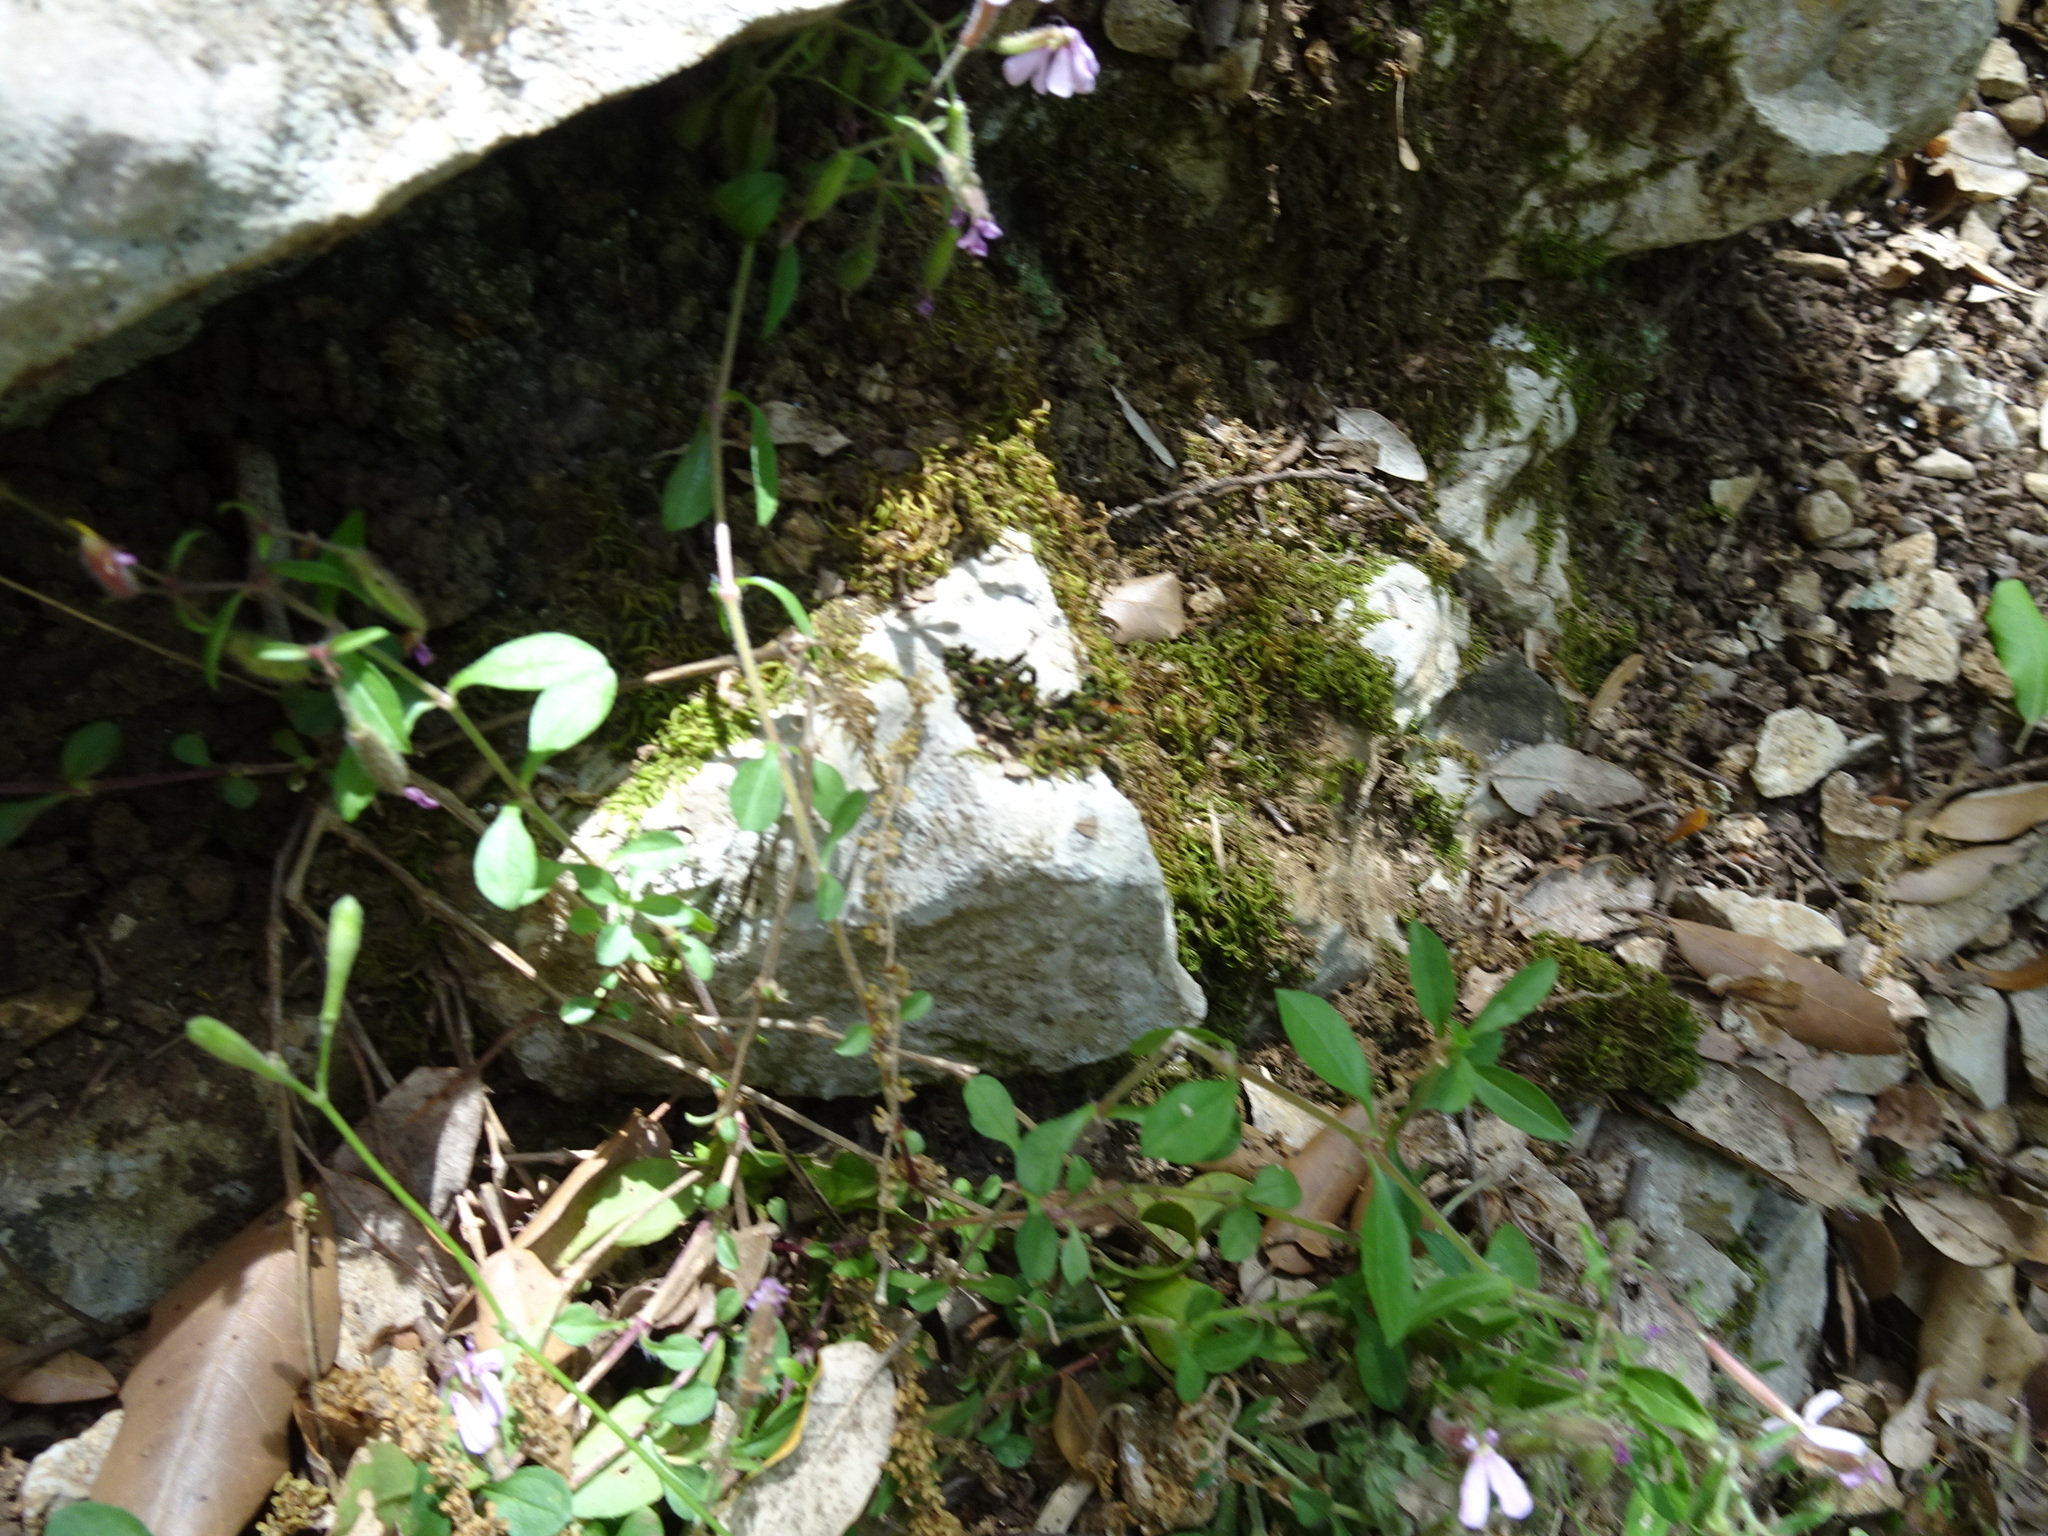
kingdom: Plantae
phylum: Tracheophyta
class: Magnoliopsida
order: Caryophyllales
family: Caryophyllaceae
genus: Saponaria
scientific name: Saponaria ocymoides
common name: Rock soapwort
